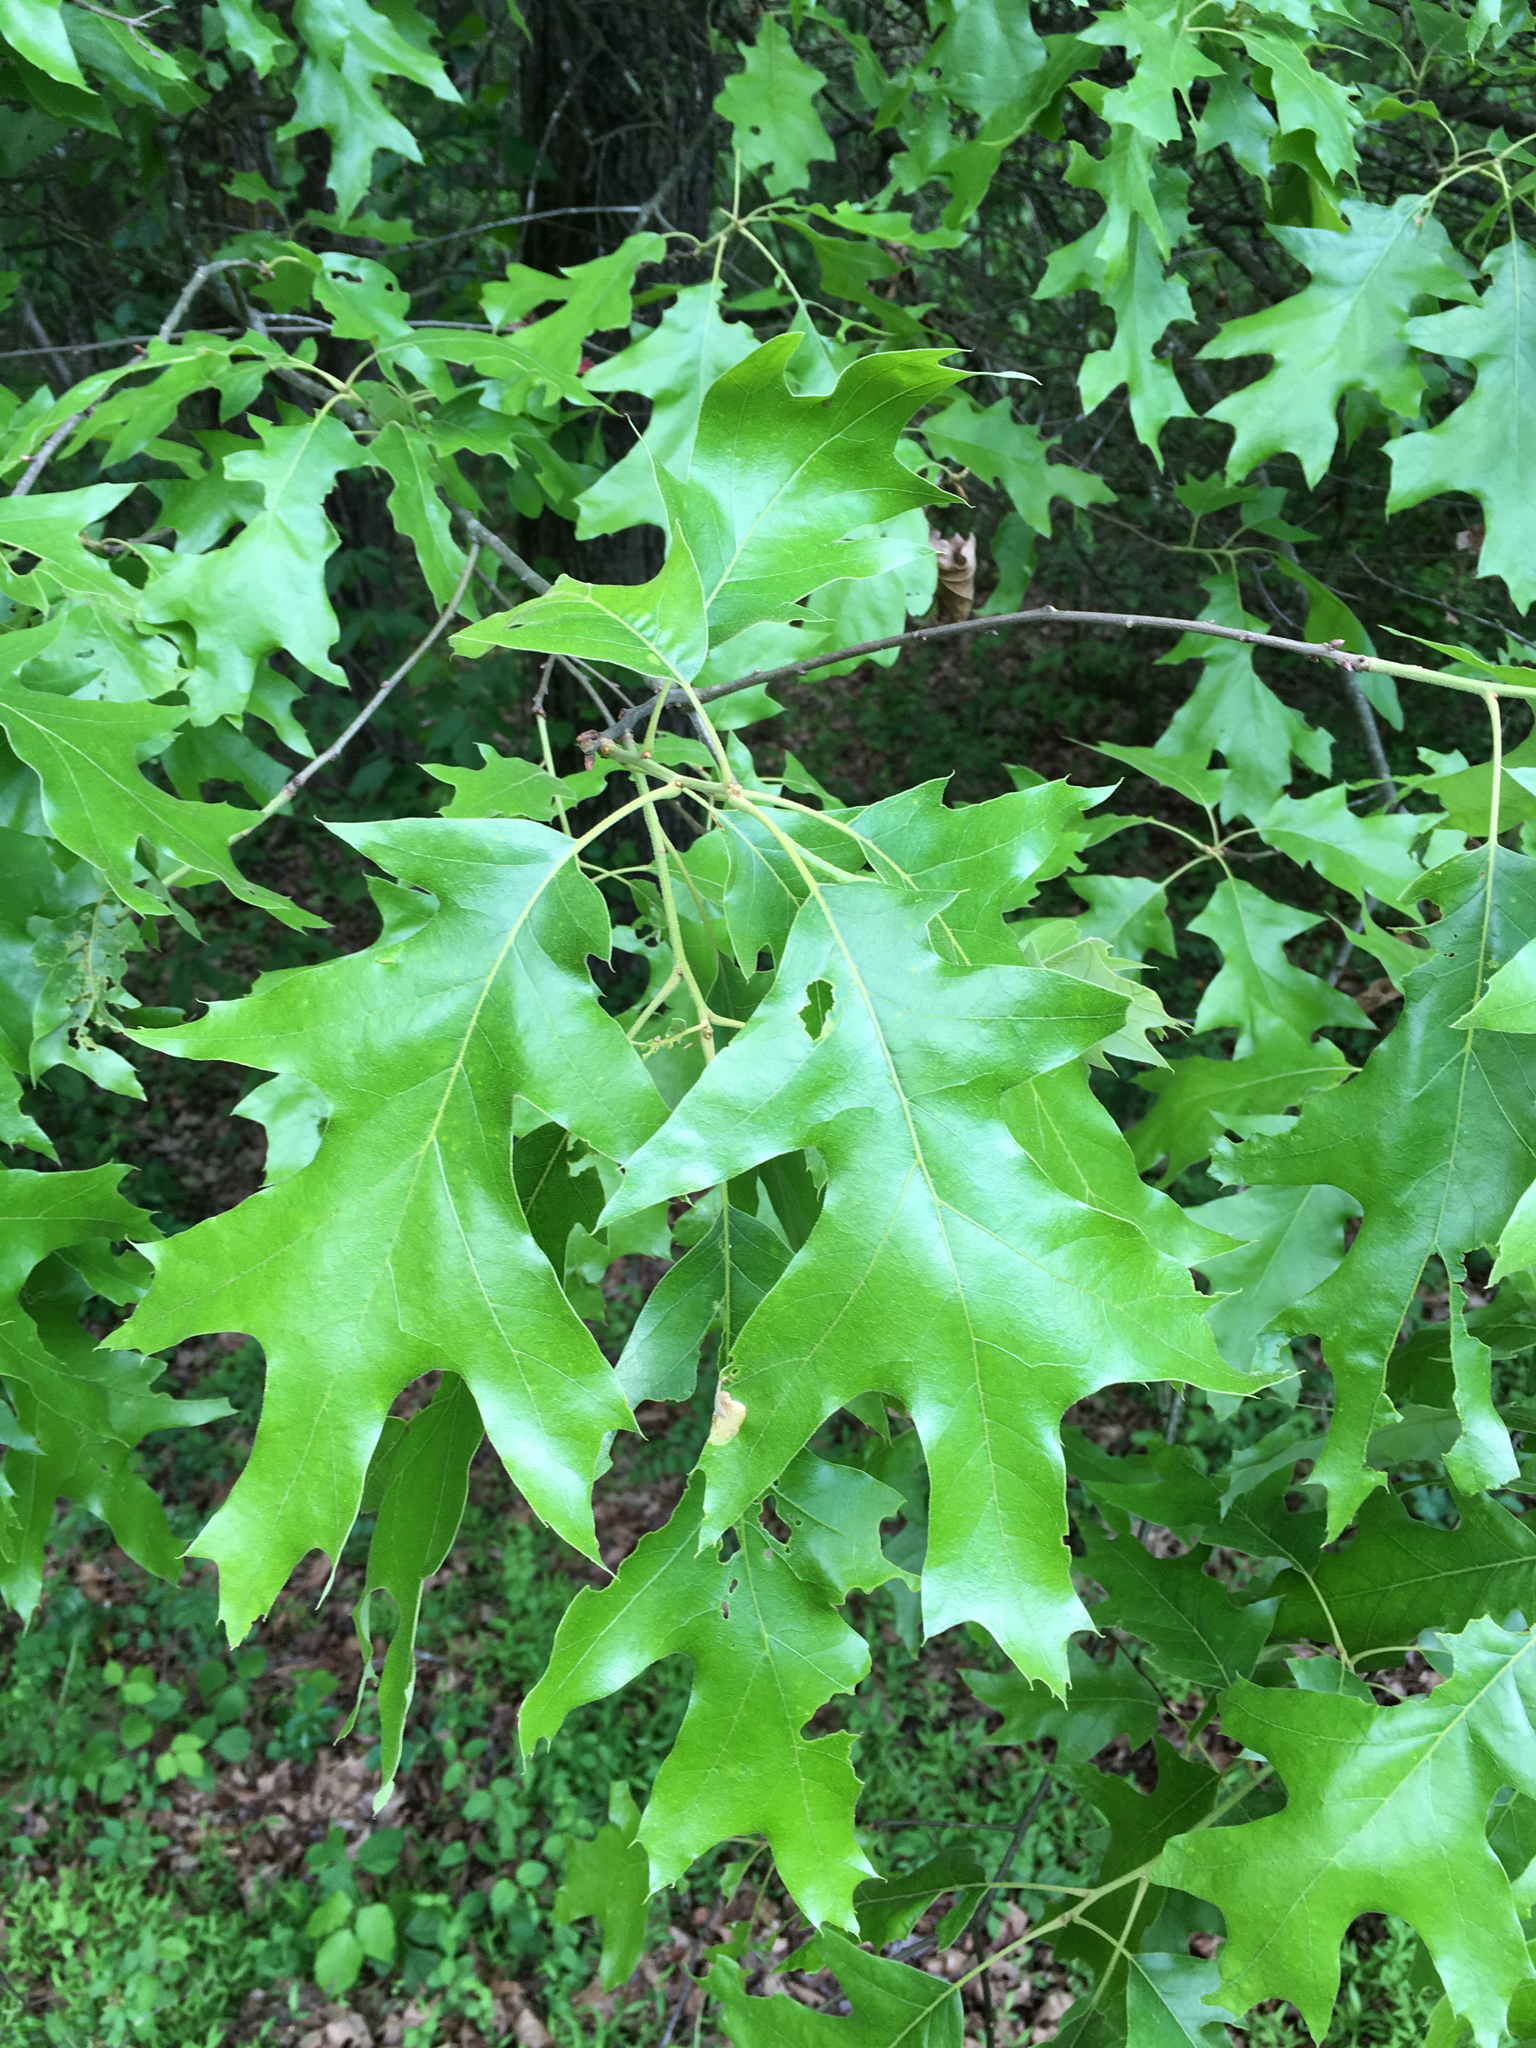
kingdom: Plantae
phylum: Tracheophyta
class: Magnoliopsida
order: Fagales
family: Fagaceae
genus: Quercus
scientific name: Quercus pagoda
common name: Cherrybark oak
